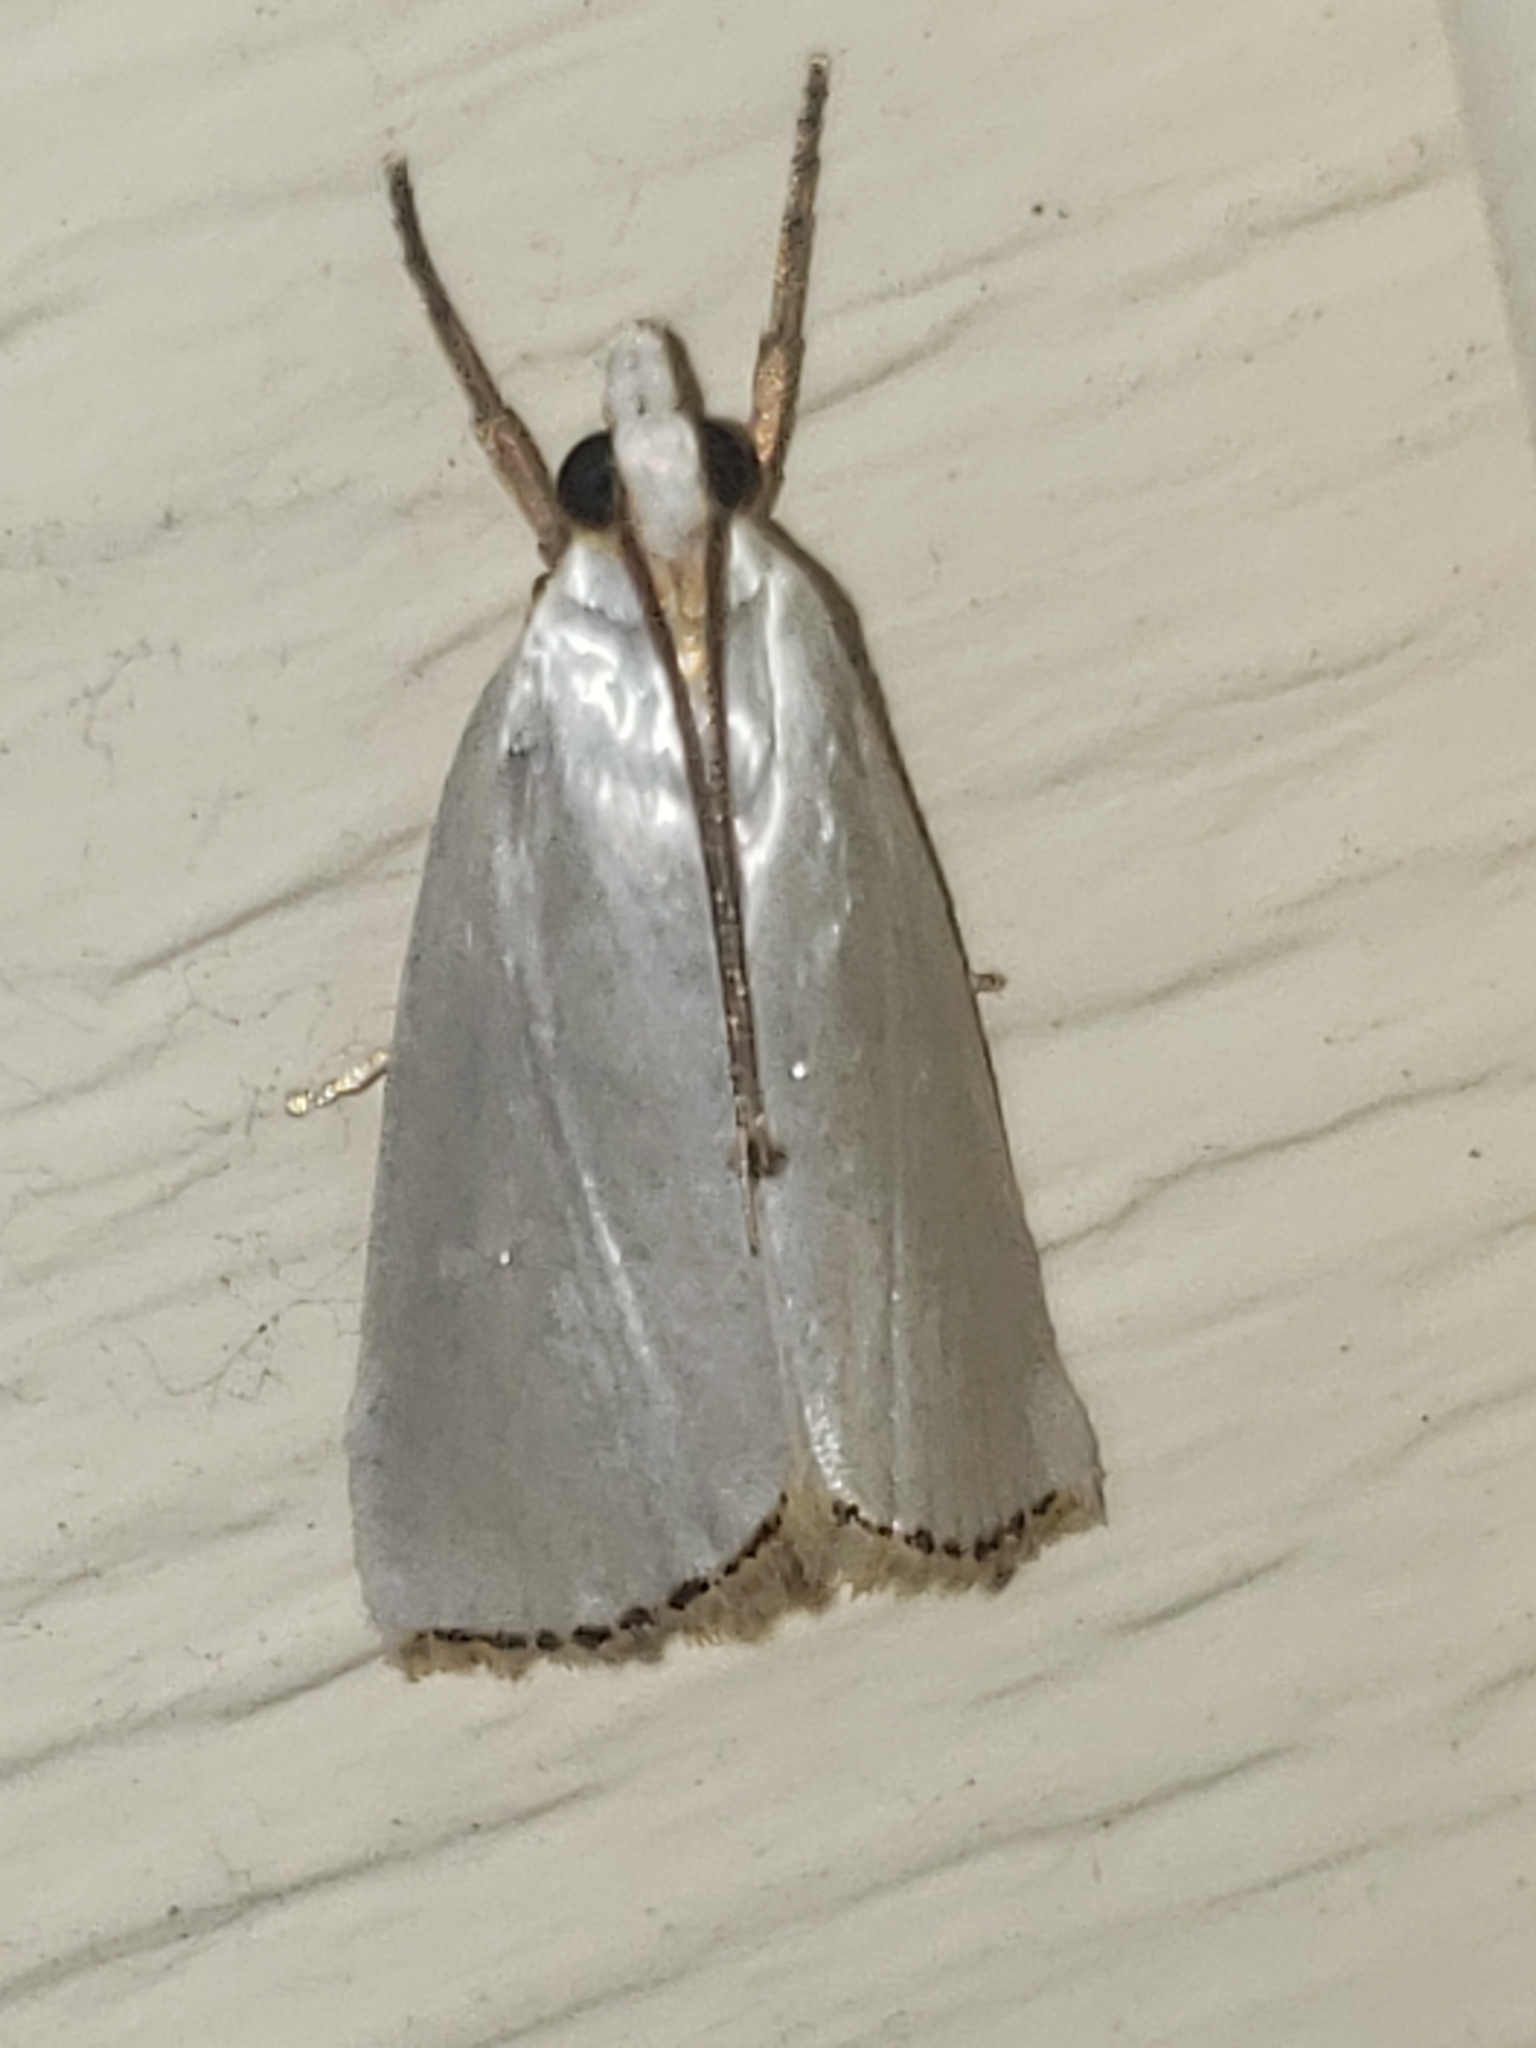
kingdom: Animalia
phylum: Arthropoda
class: Insecta
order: Lepidoptera
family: Crambidae
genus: Argyria
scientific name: Argyria nivalis
